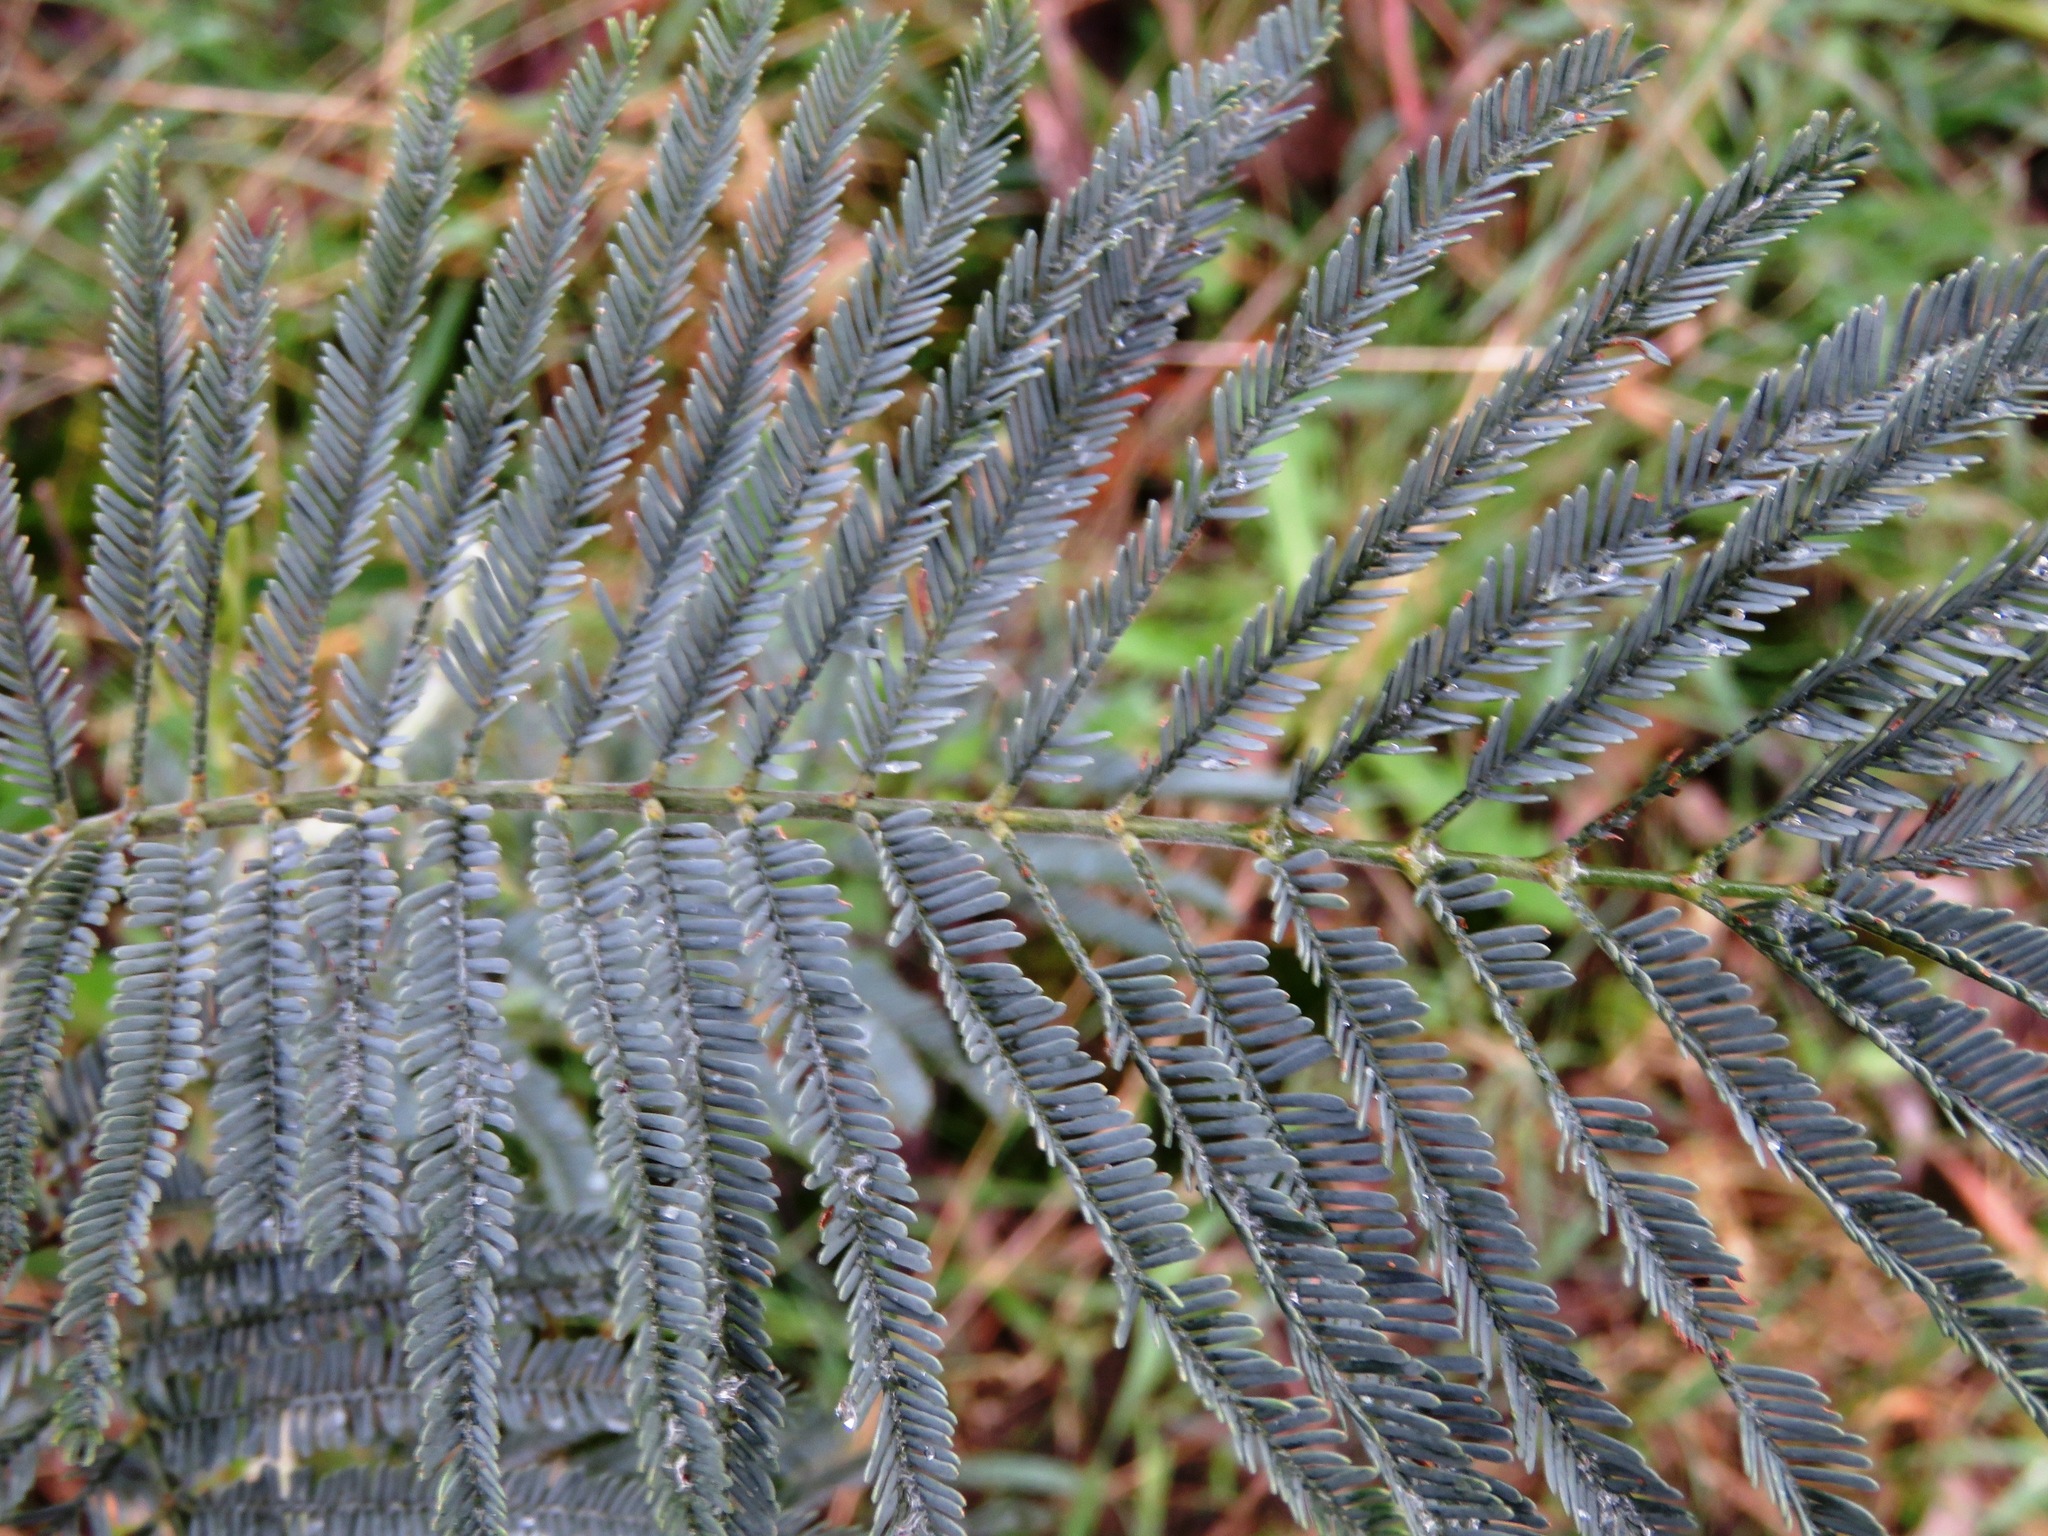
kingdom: Plantae
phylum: Tracheophyta
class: Magnoliopsida
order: Fabales
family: Fabaceae
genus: Acacia
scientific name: Acacia dealbata
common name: Silver wattle
